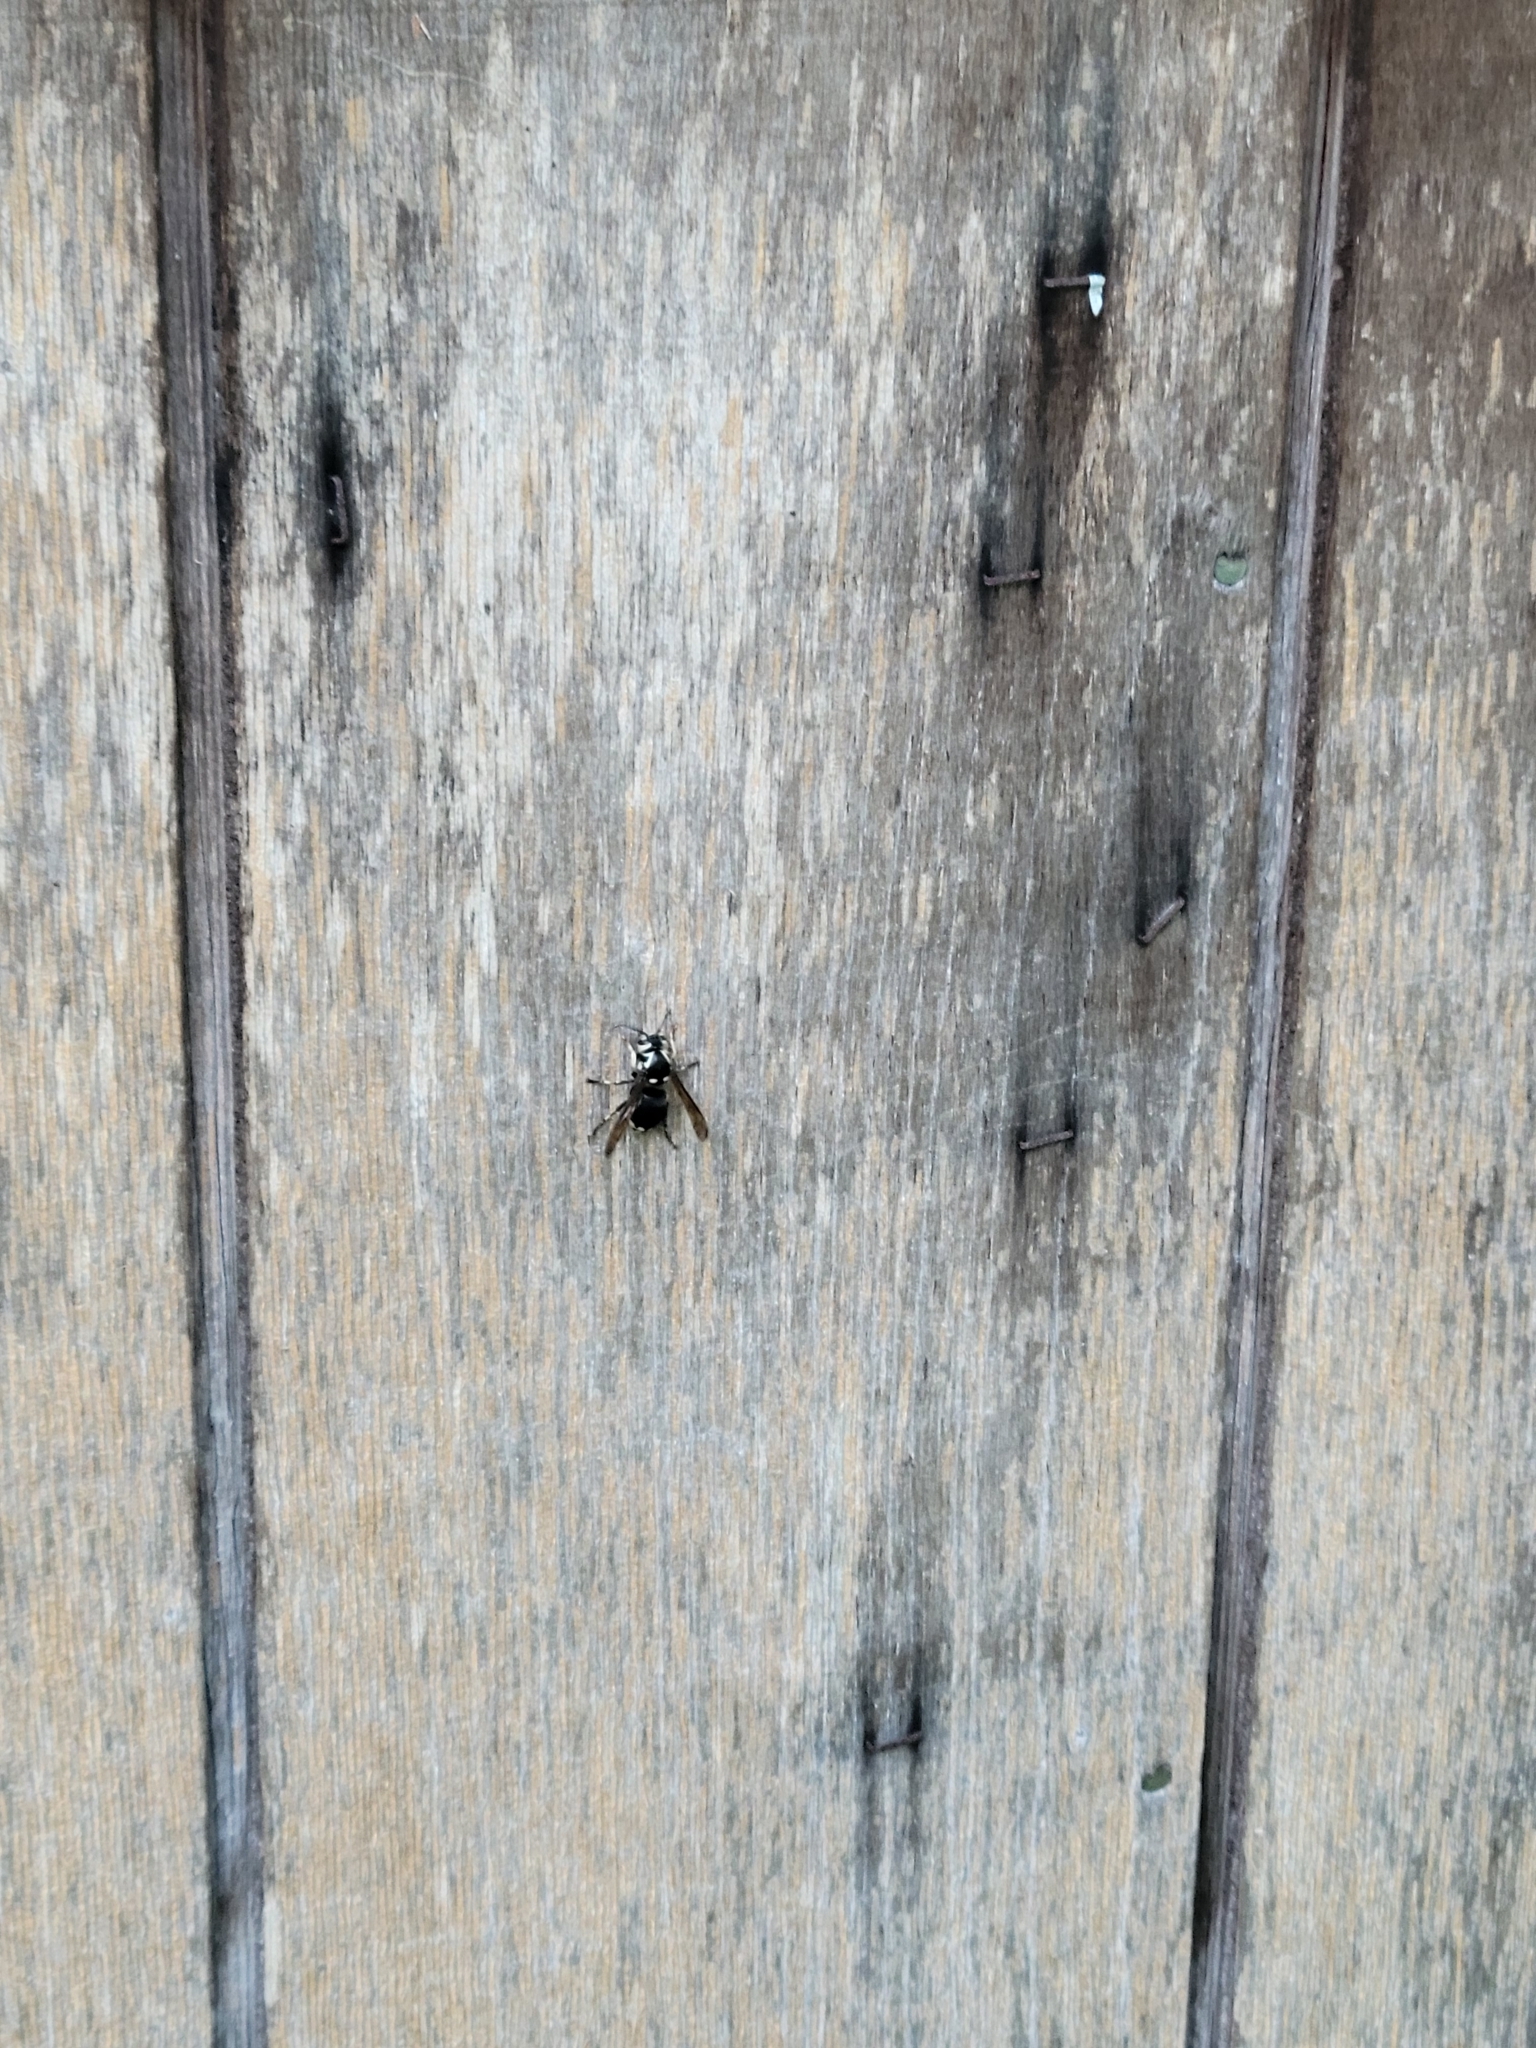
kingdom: Animalia
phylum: Arthropoda
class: Insecta
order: Hymenoptera
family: Vespidae
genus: Dolichovespula
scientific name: Dolichovespula maculata
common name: Bald-faced hornet
